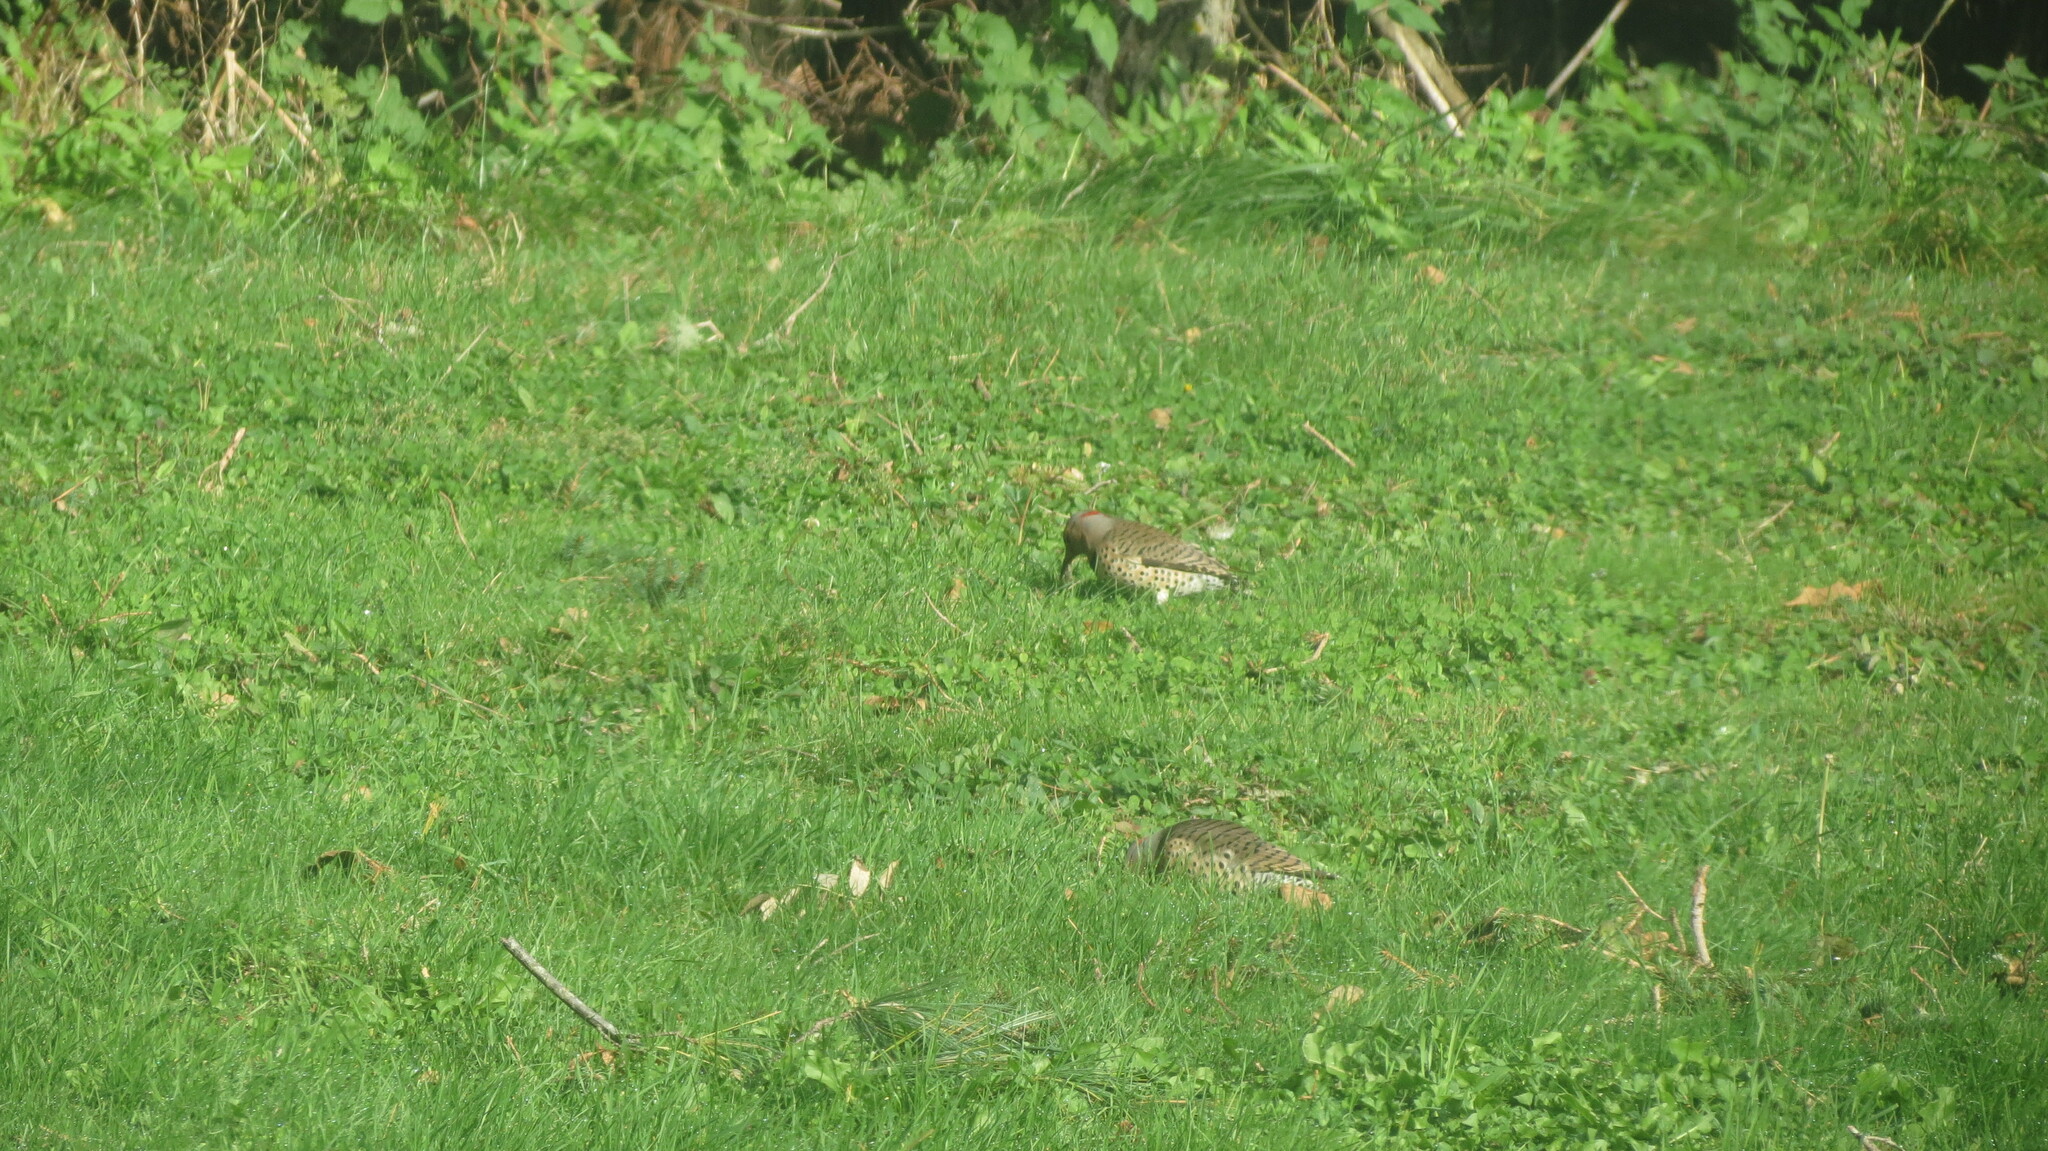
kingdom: Animalia
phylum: Chordata
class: Aves
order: Piciformes
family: Picidae
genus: Colaptes
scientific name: Colaptes auratus
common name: Northern flicker
